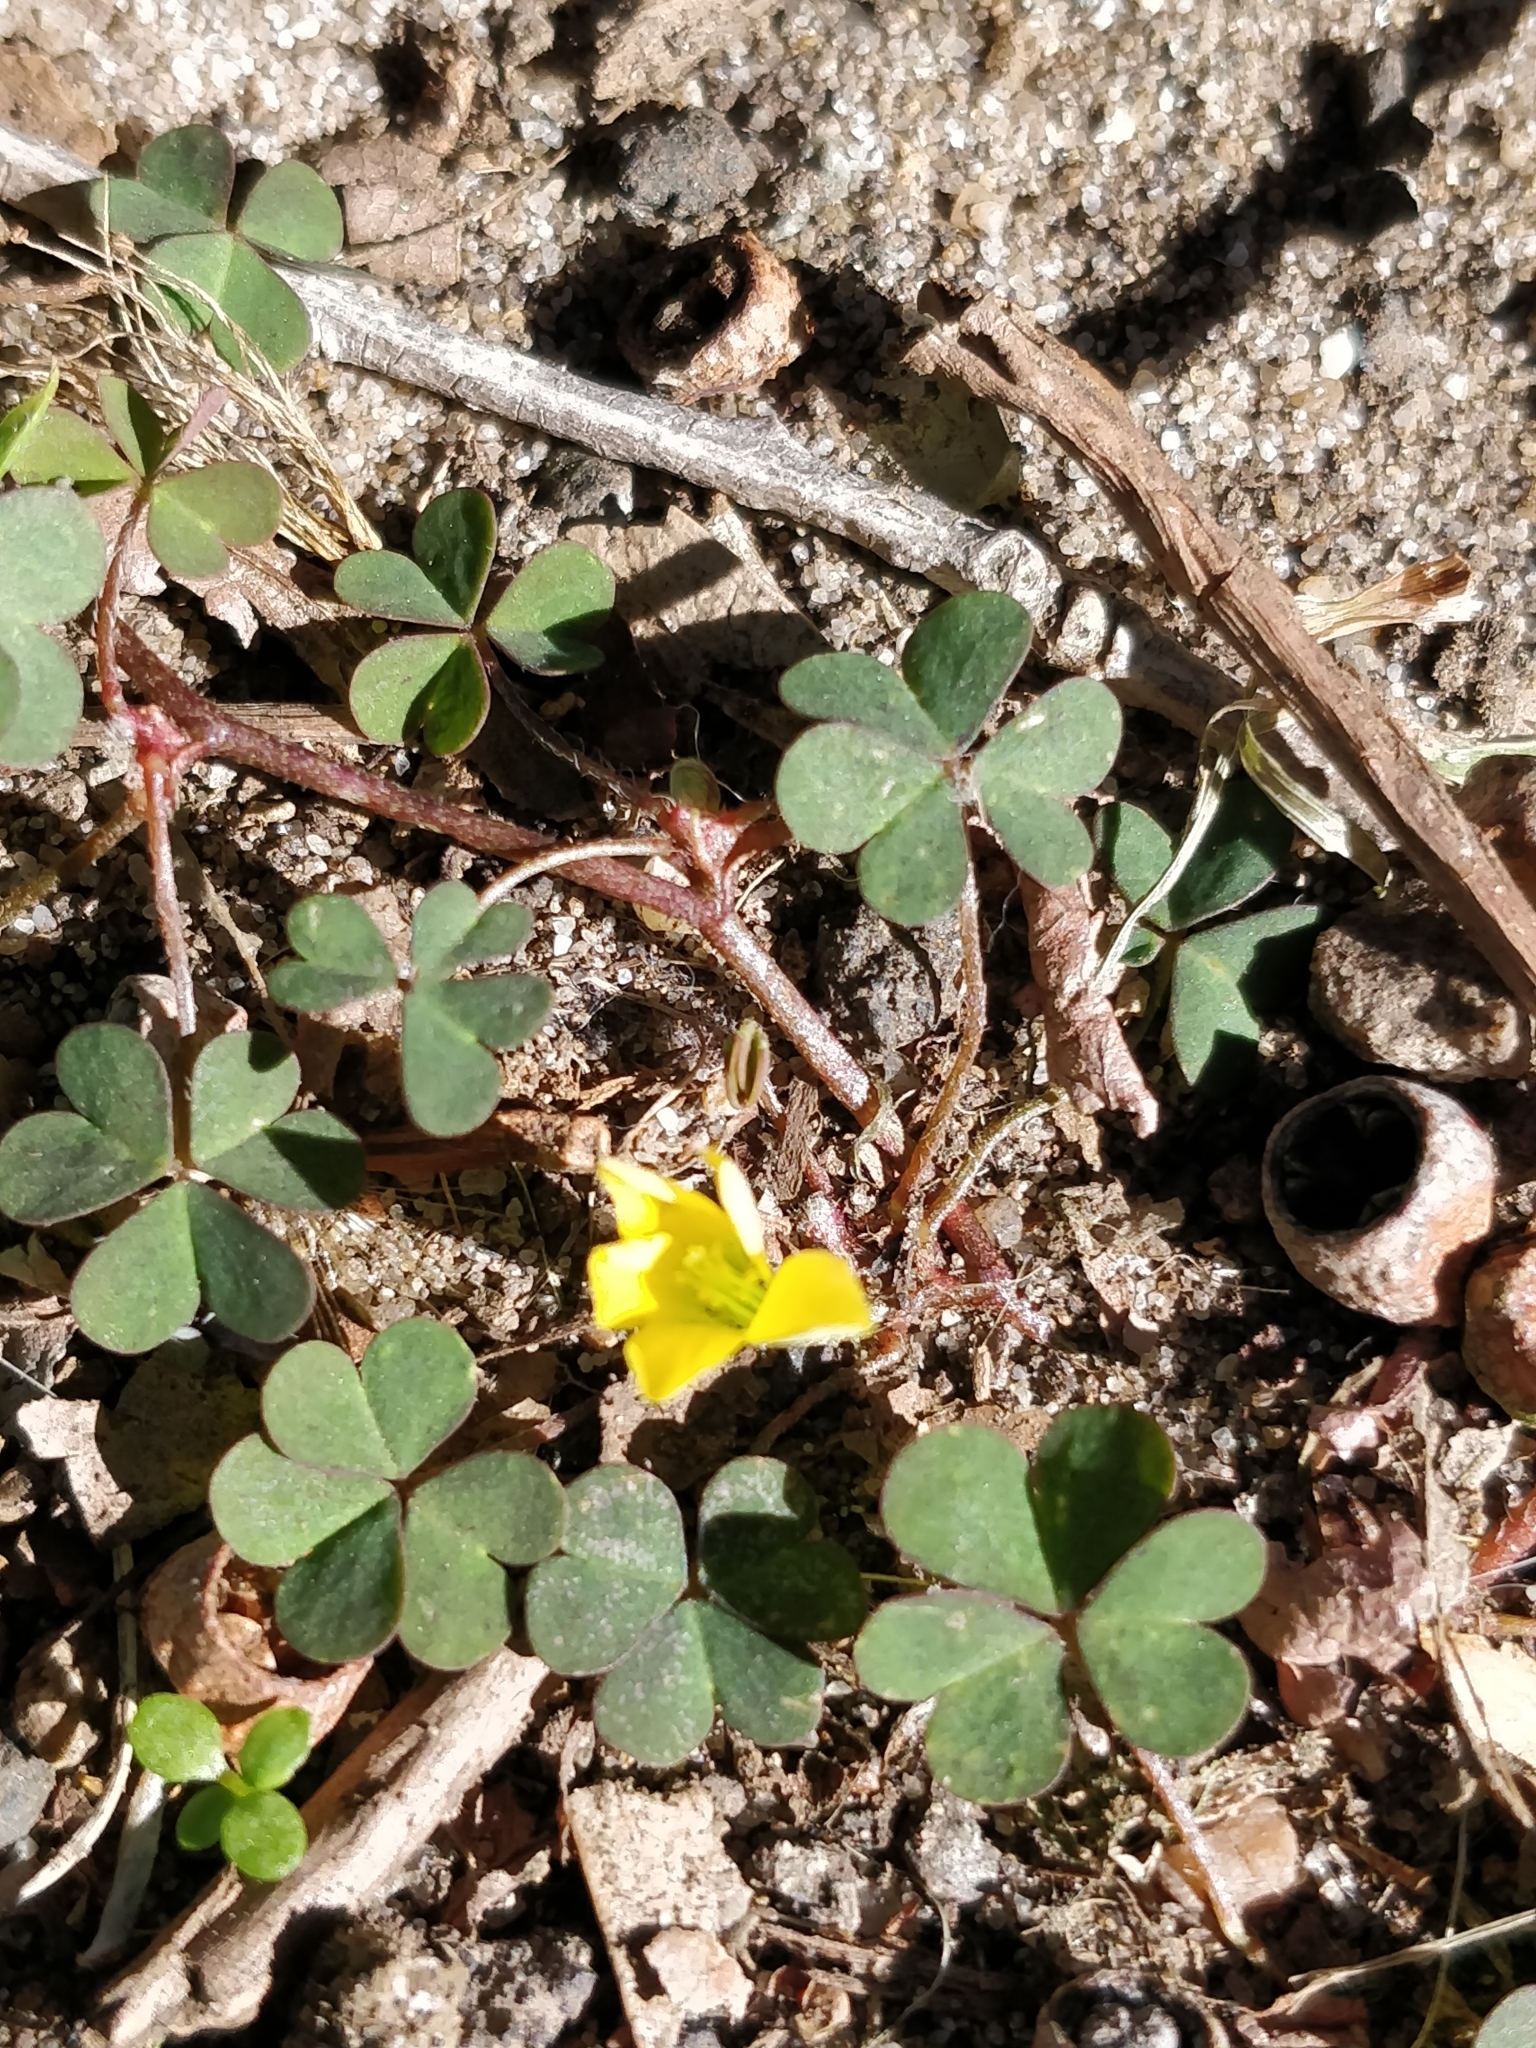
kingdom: Plantae
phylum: Tracheophyta
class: Magnoliopsida
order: Oxalidales
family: Oxalidaceae
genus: Oxalis
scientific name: Oxalis corniculata
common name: Procumbent yellow-sorrel
